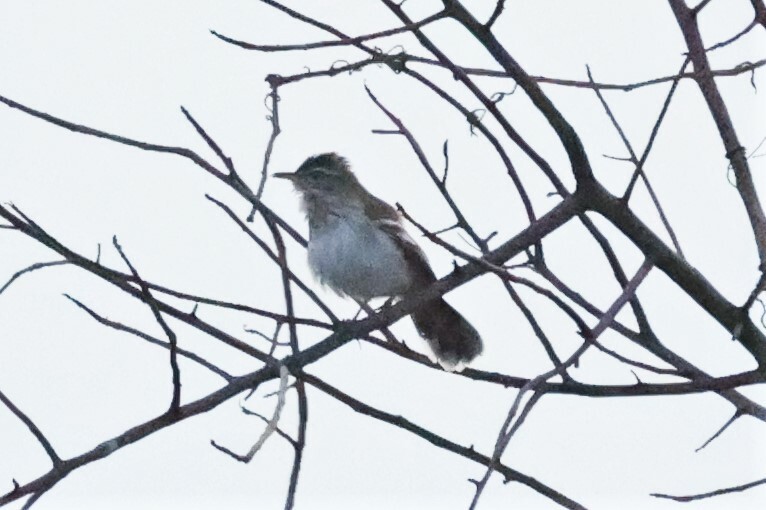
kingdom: Animalia
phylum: Chordata
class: Aves
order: Passeriformes
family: Muscicapidae
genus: Erythropygia
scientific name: Erythropygia hartlaubi
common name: Brown-backed scrub robin
